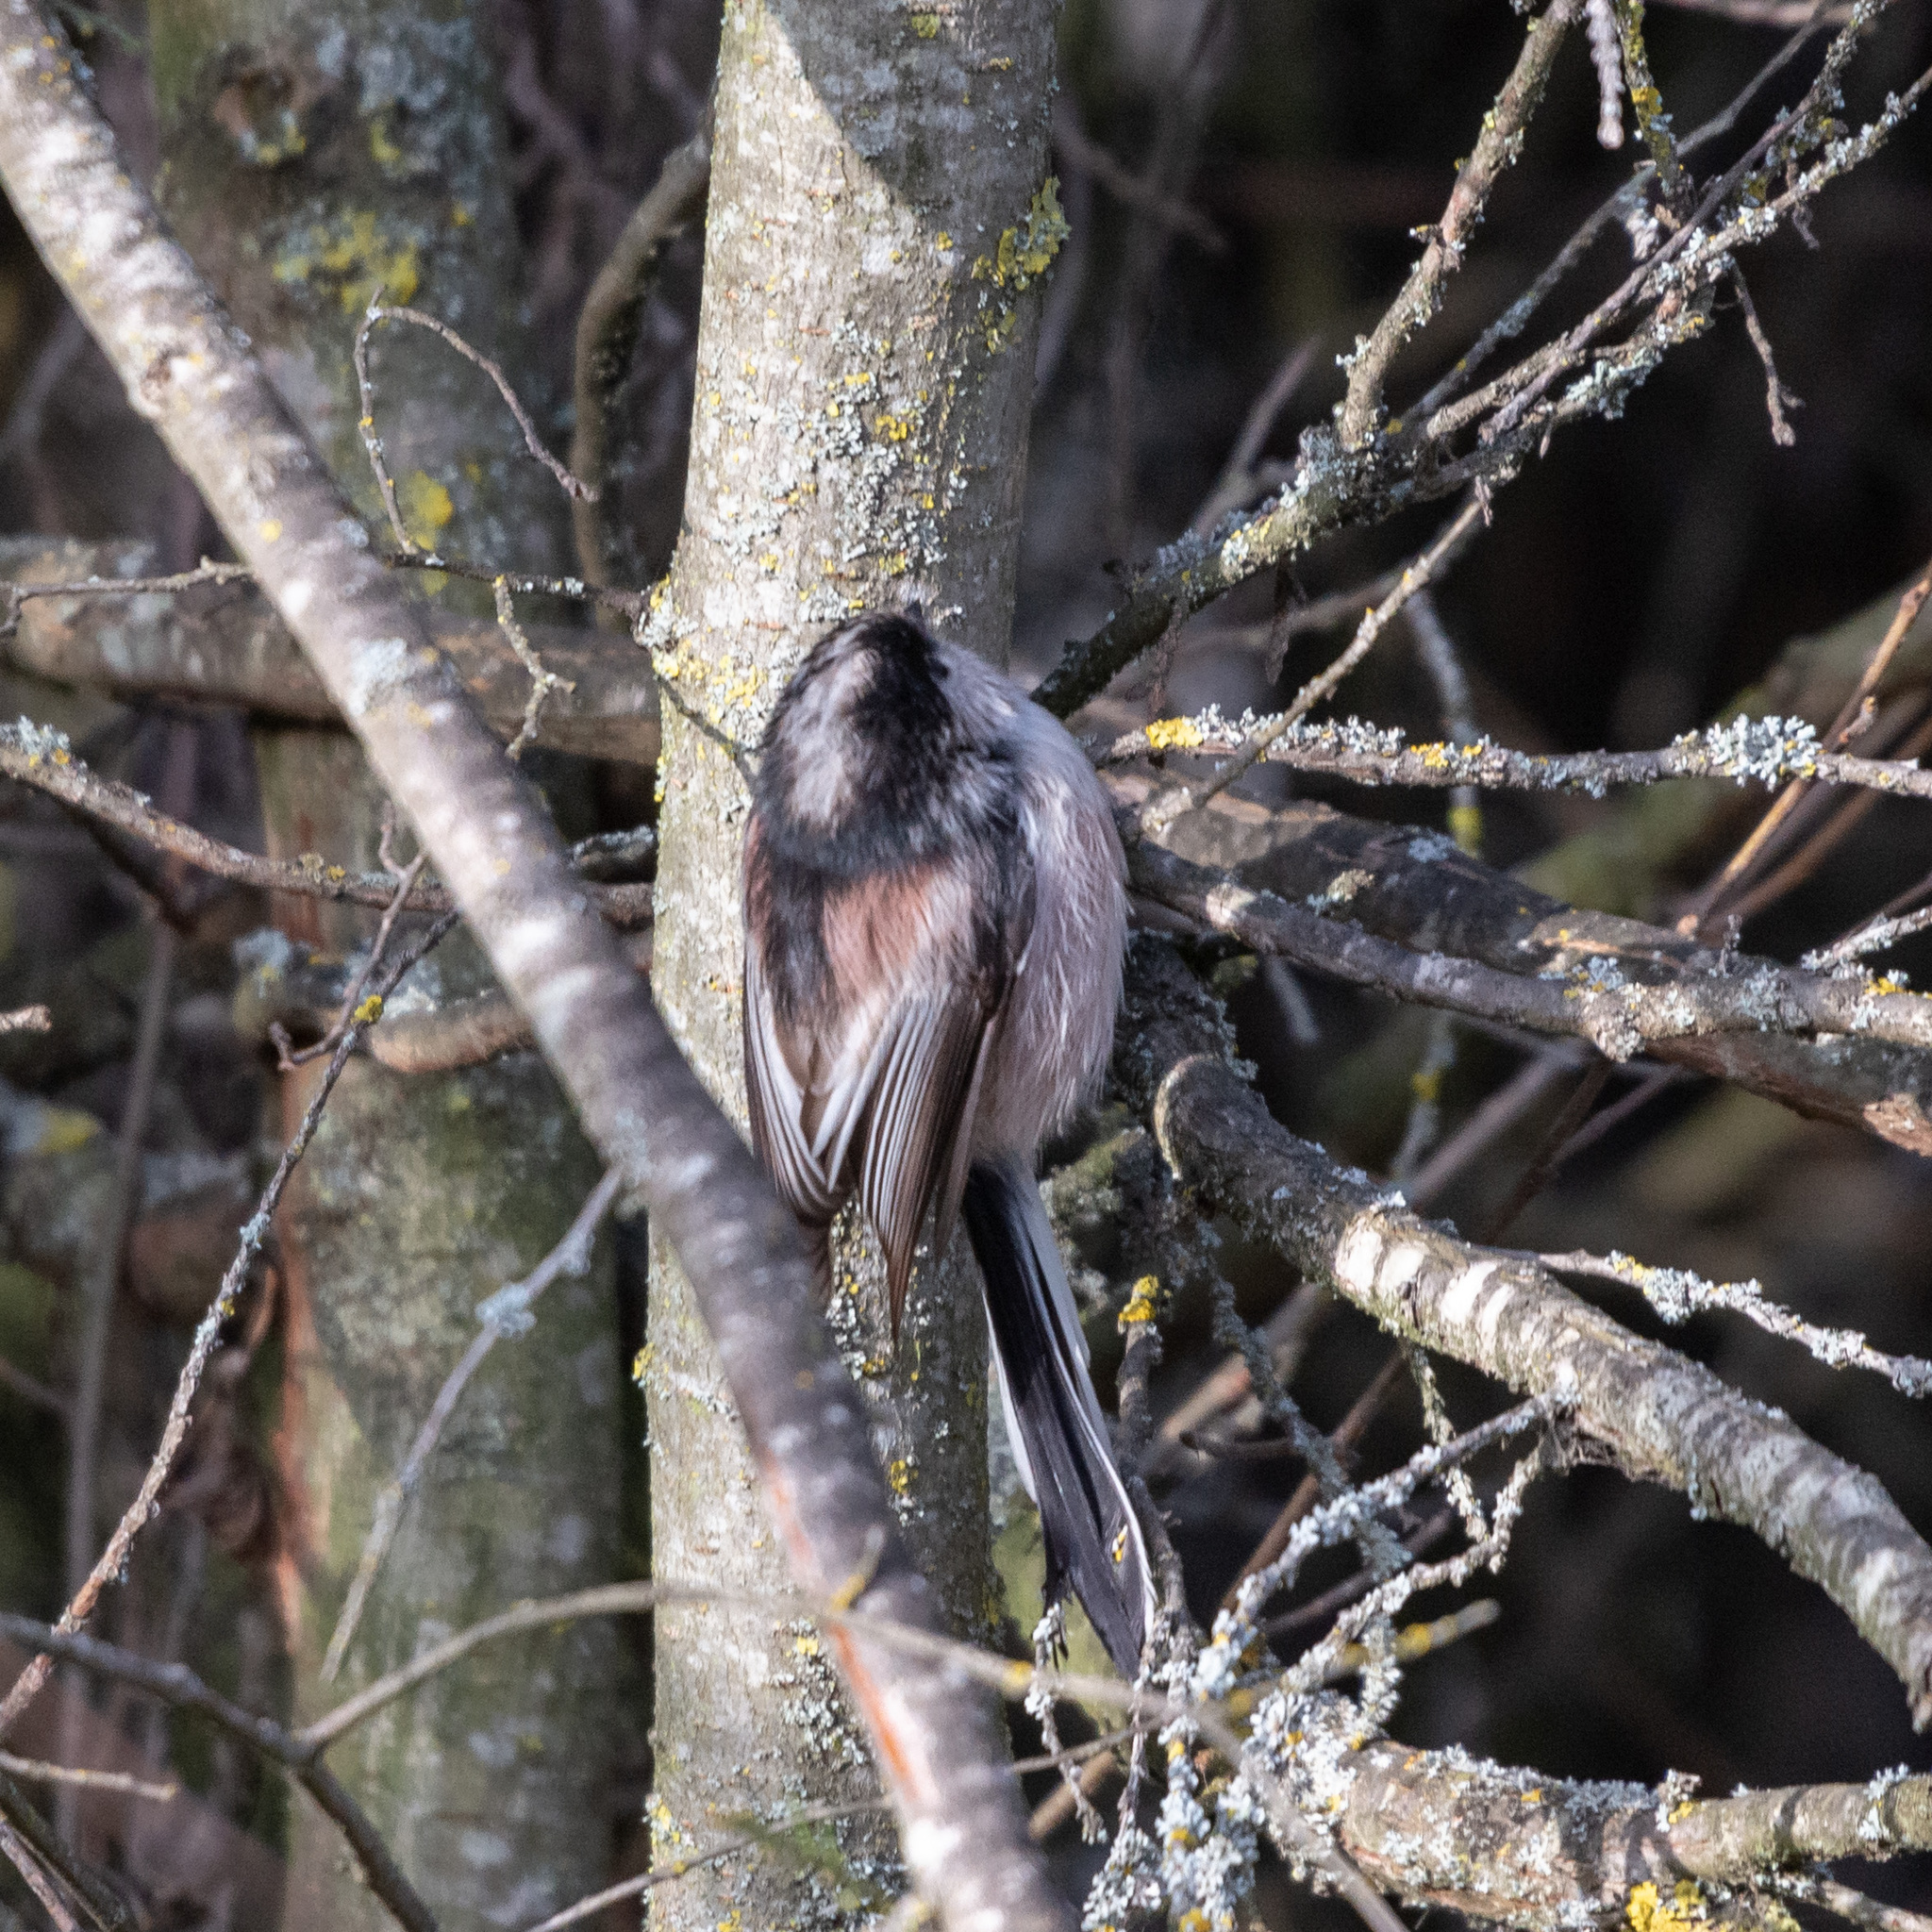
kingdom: Animalia
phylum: Chordata
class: Aves
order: Passeriformes
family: Aegithalidae
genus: Aegithalos
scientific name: Aegithalos caudatus
